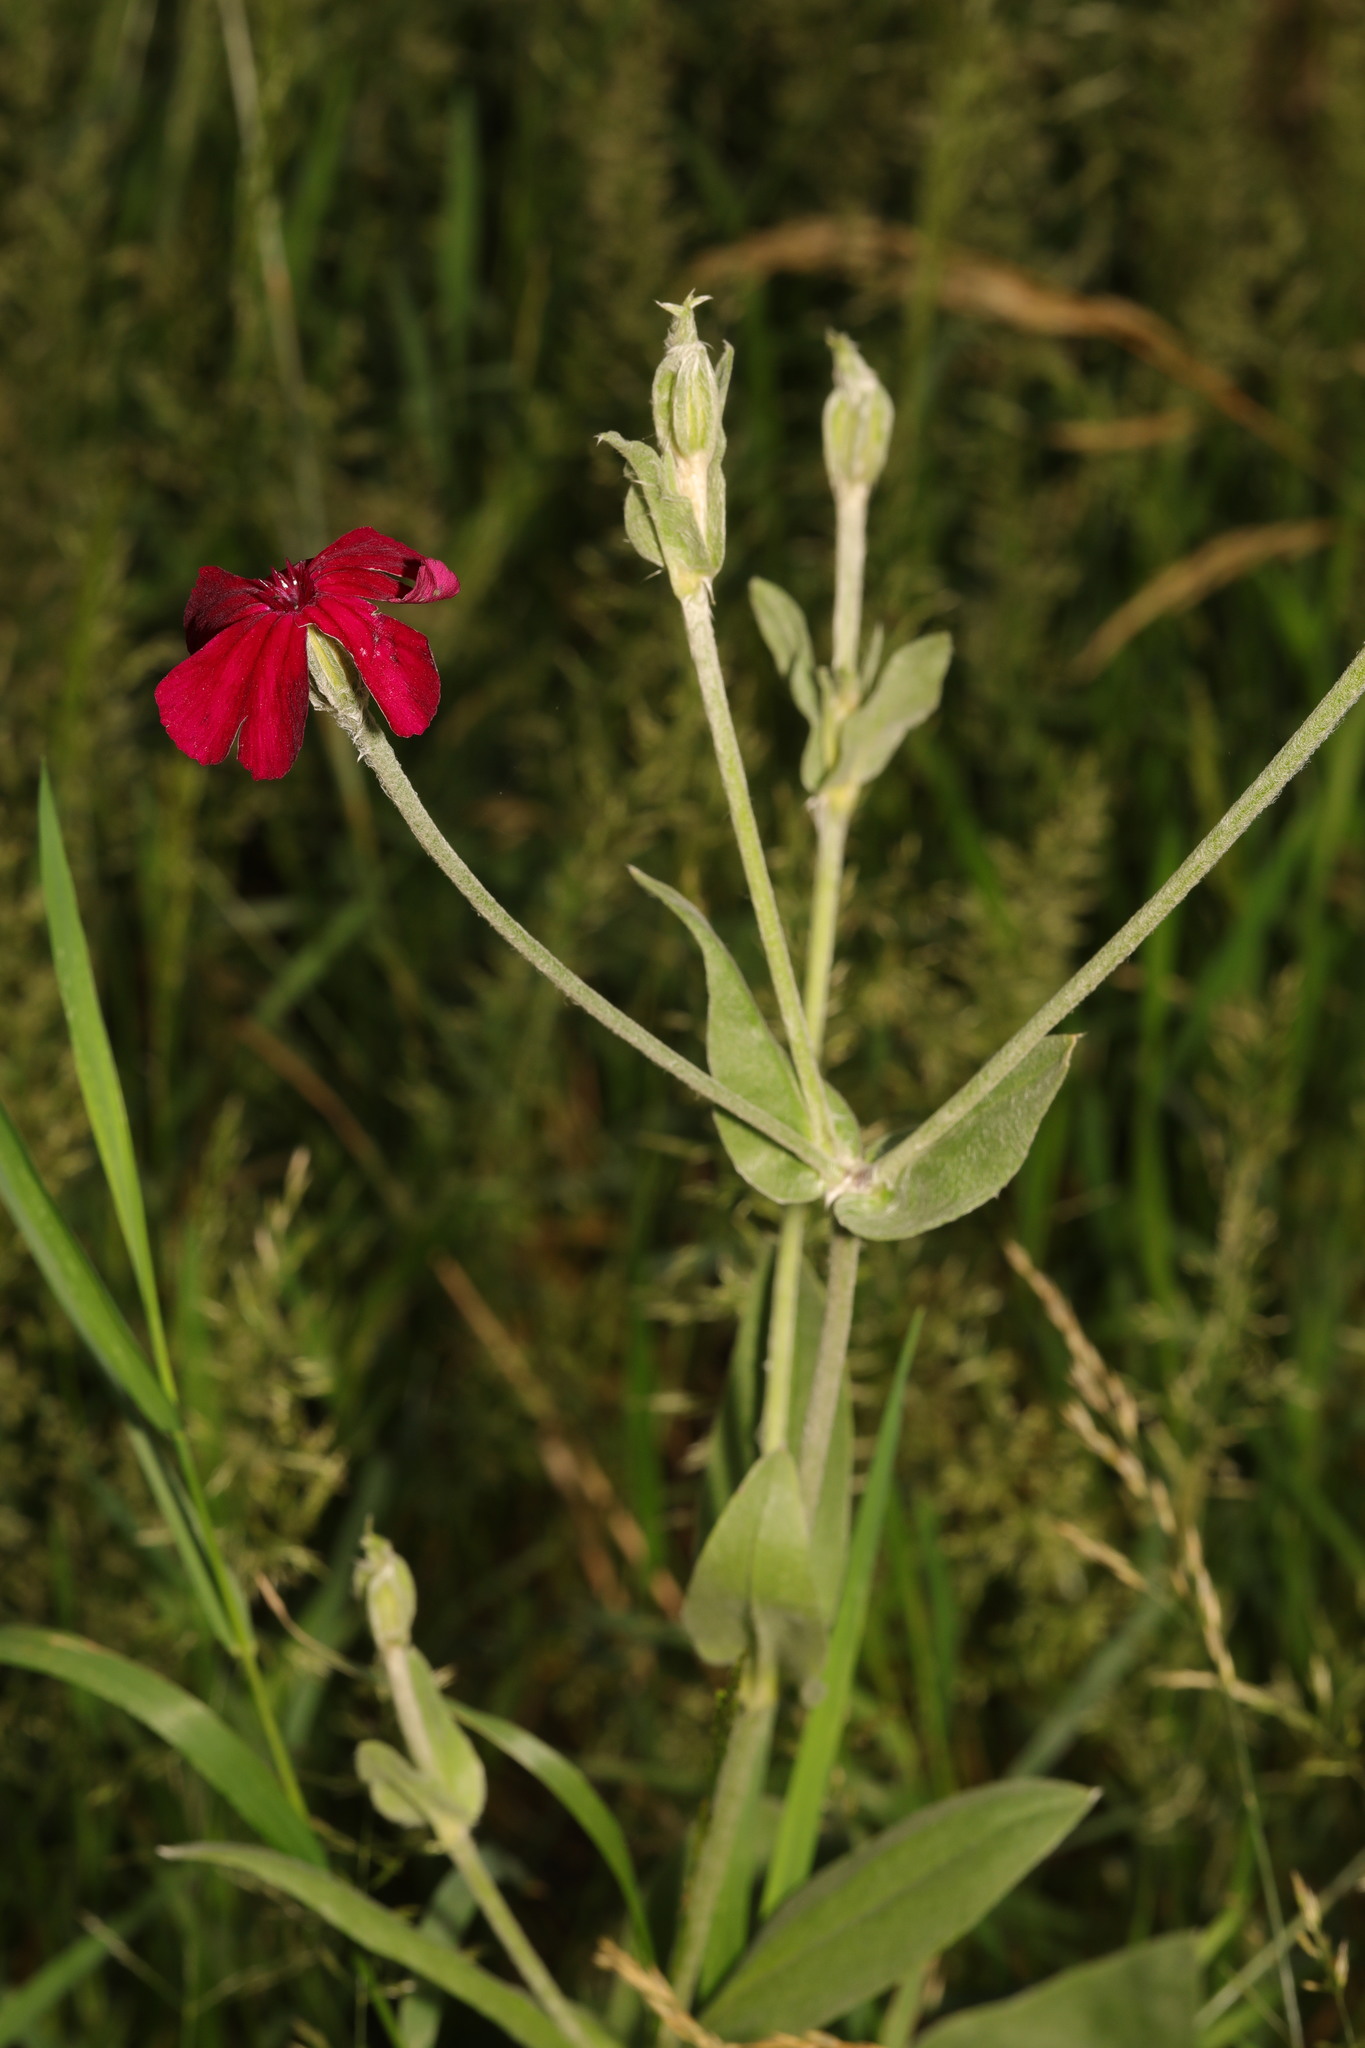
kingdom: Plantae
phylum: Tracheophyta
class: Magnoliopsida
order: Caryophyllales
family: Caryophyllaceae
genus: Silene
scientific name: Silene coronaria
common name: Rose campion
